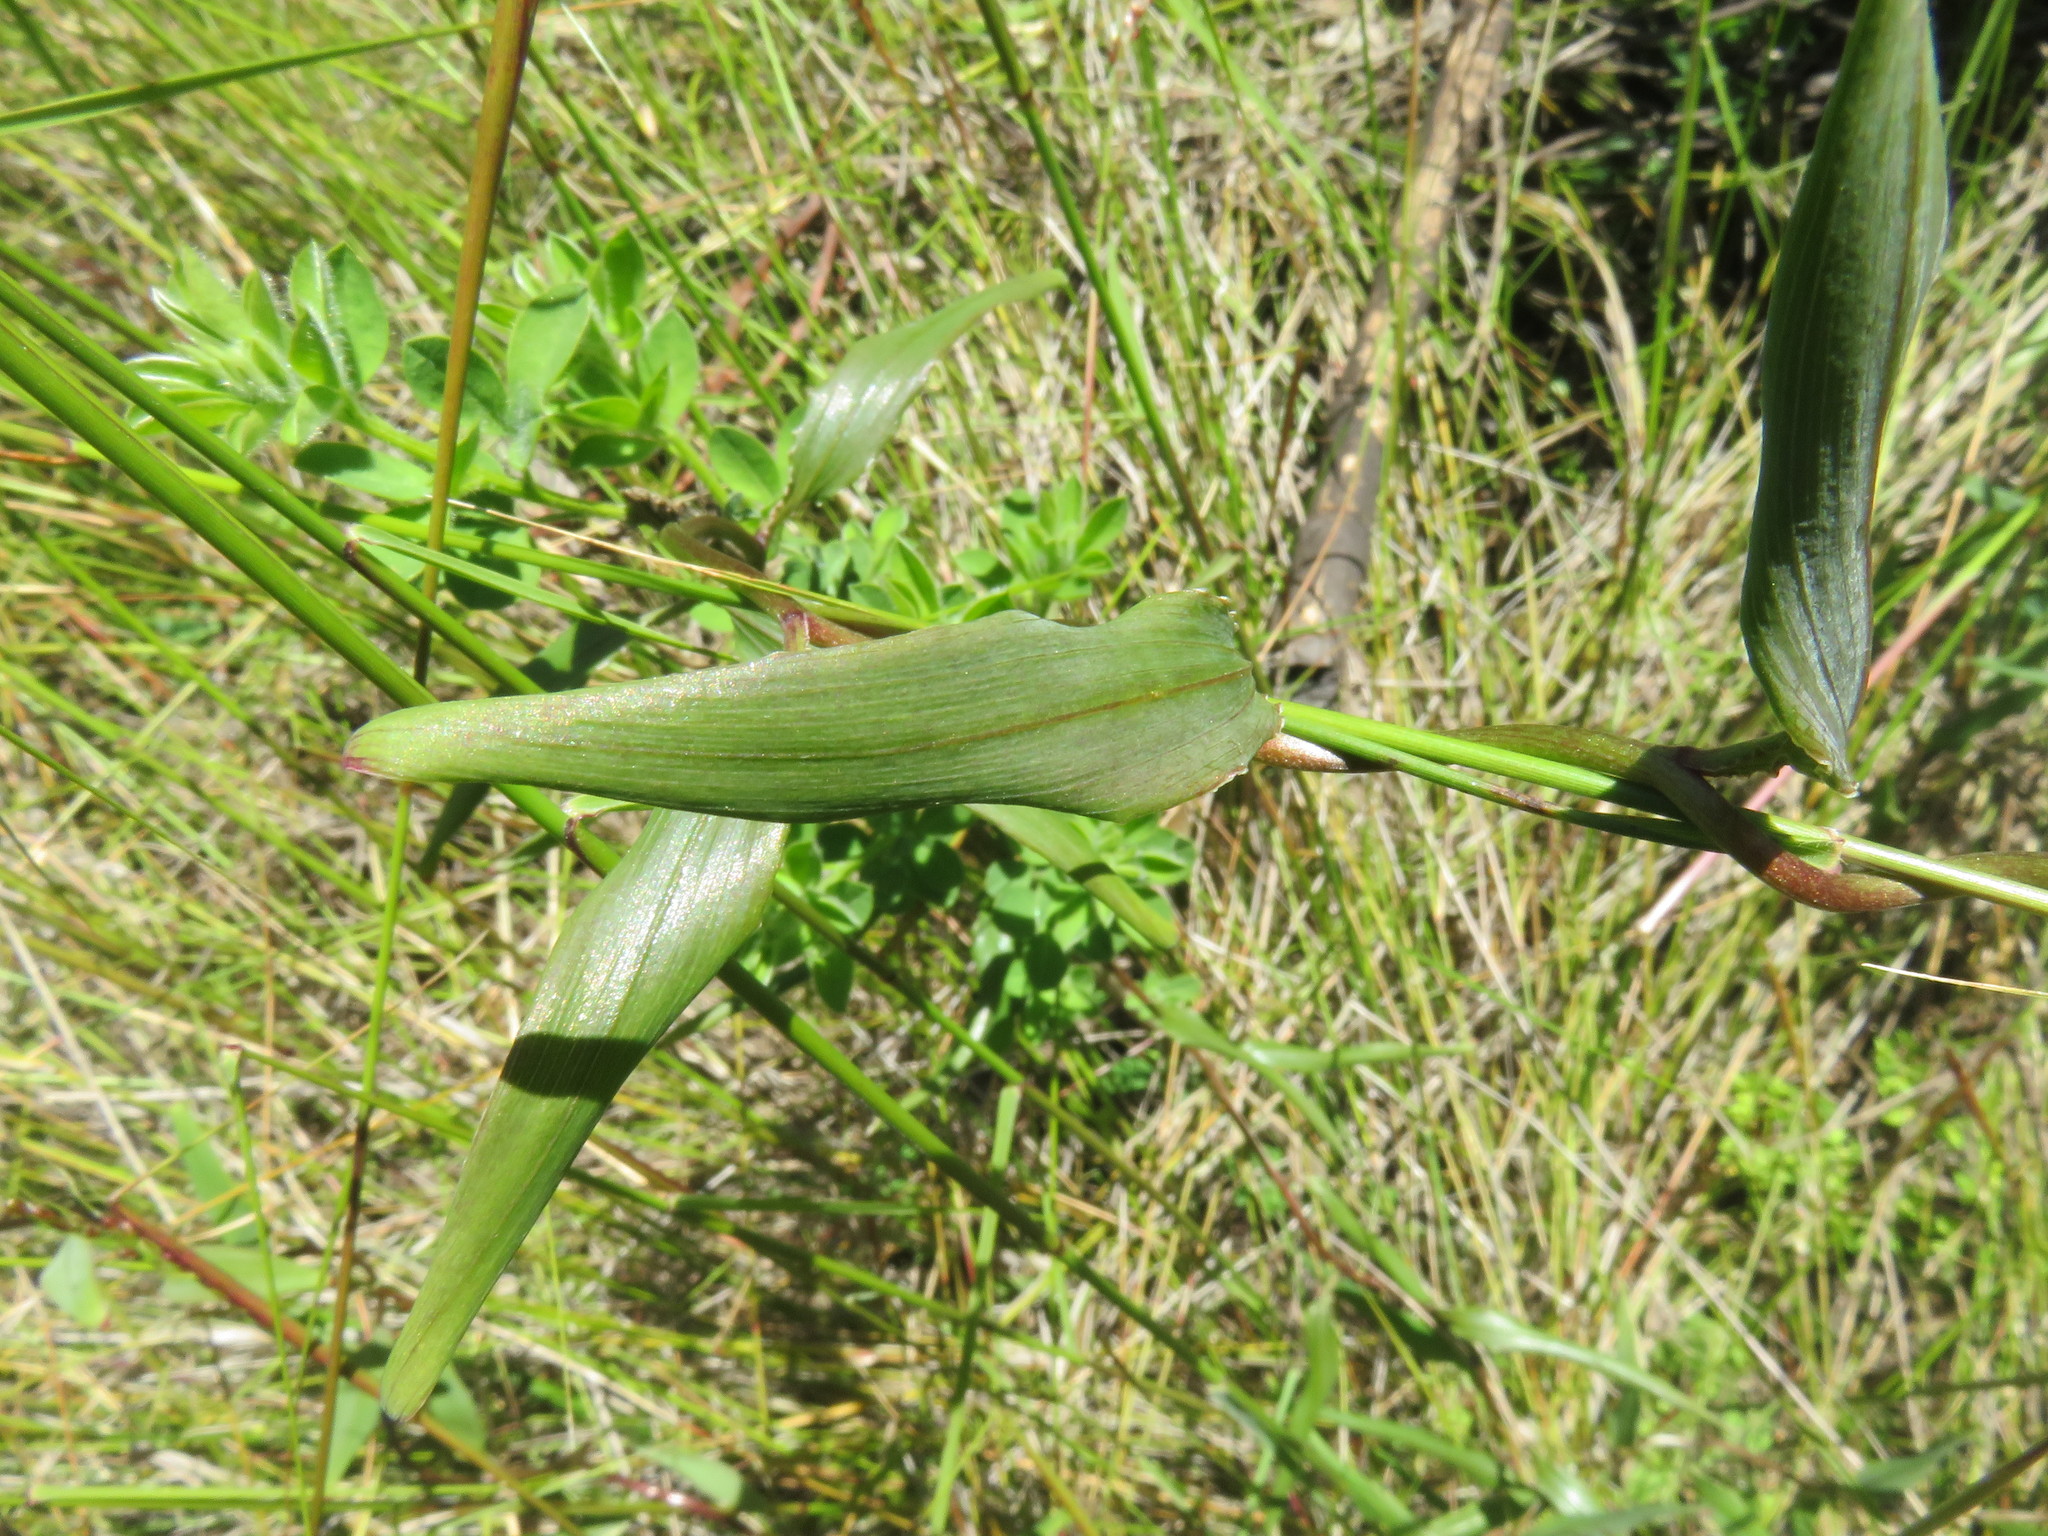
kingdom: Plantae
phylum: Tracheophyta
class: Liliopsida
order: Liliales
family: Alstroemeriaceae
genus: Bomarea
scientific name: Bomarea salsilla
